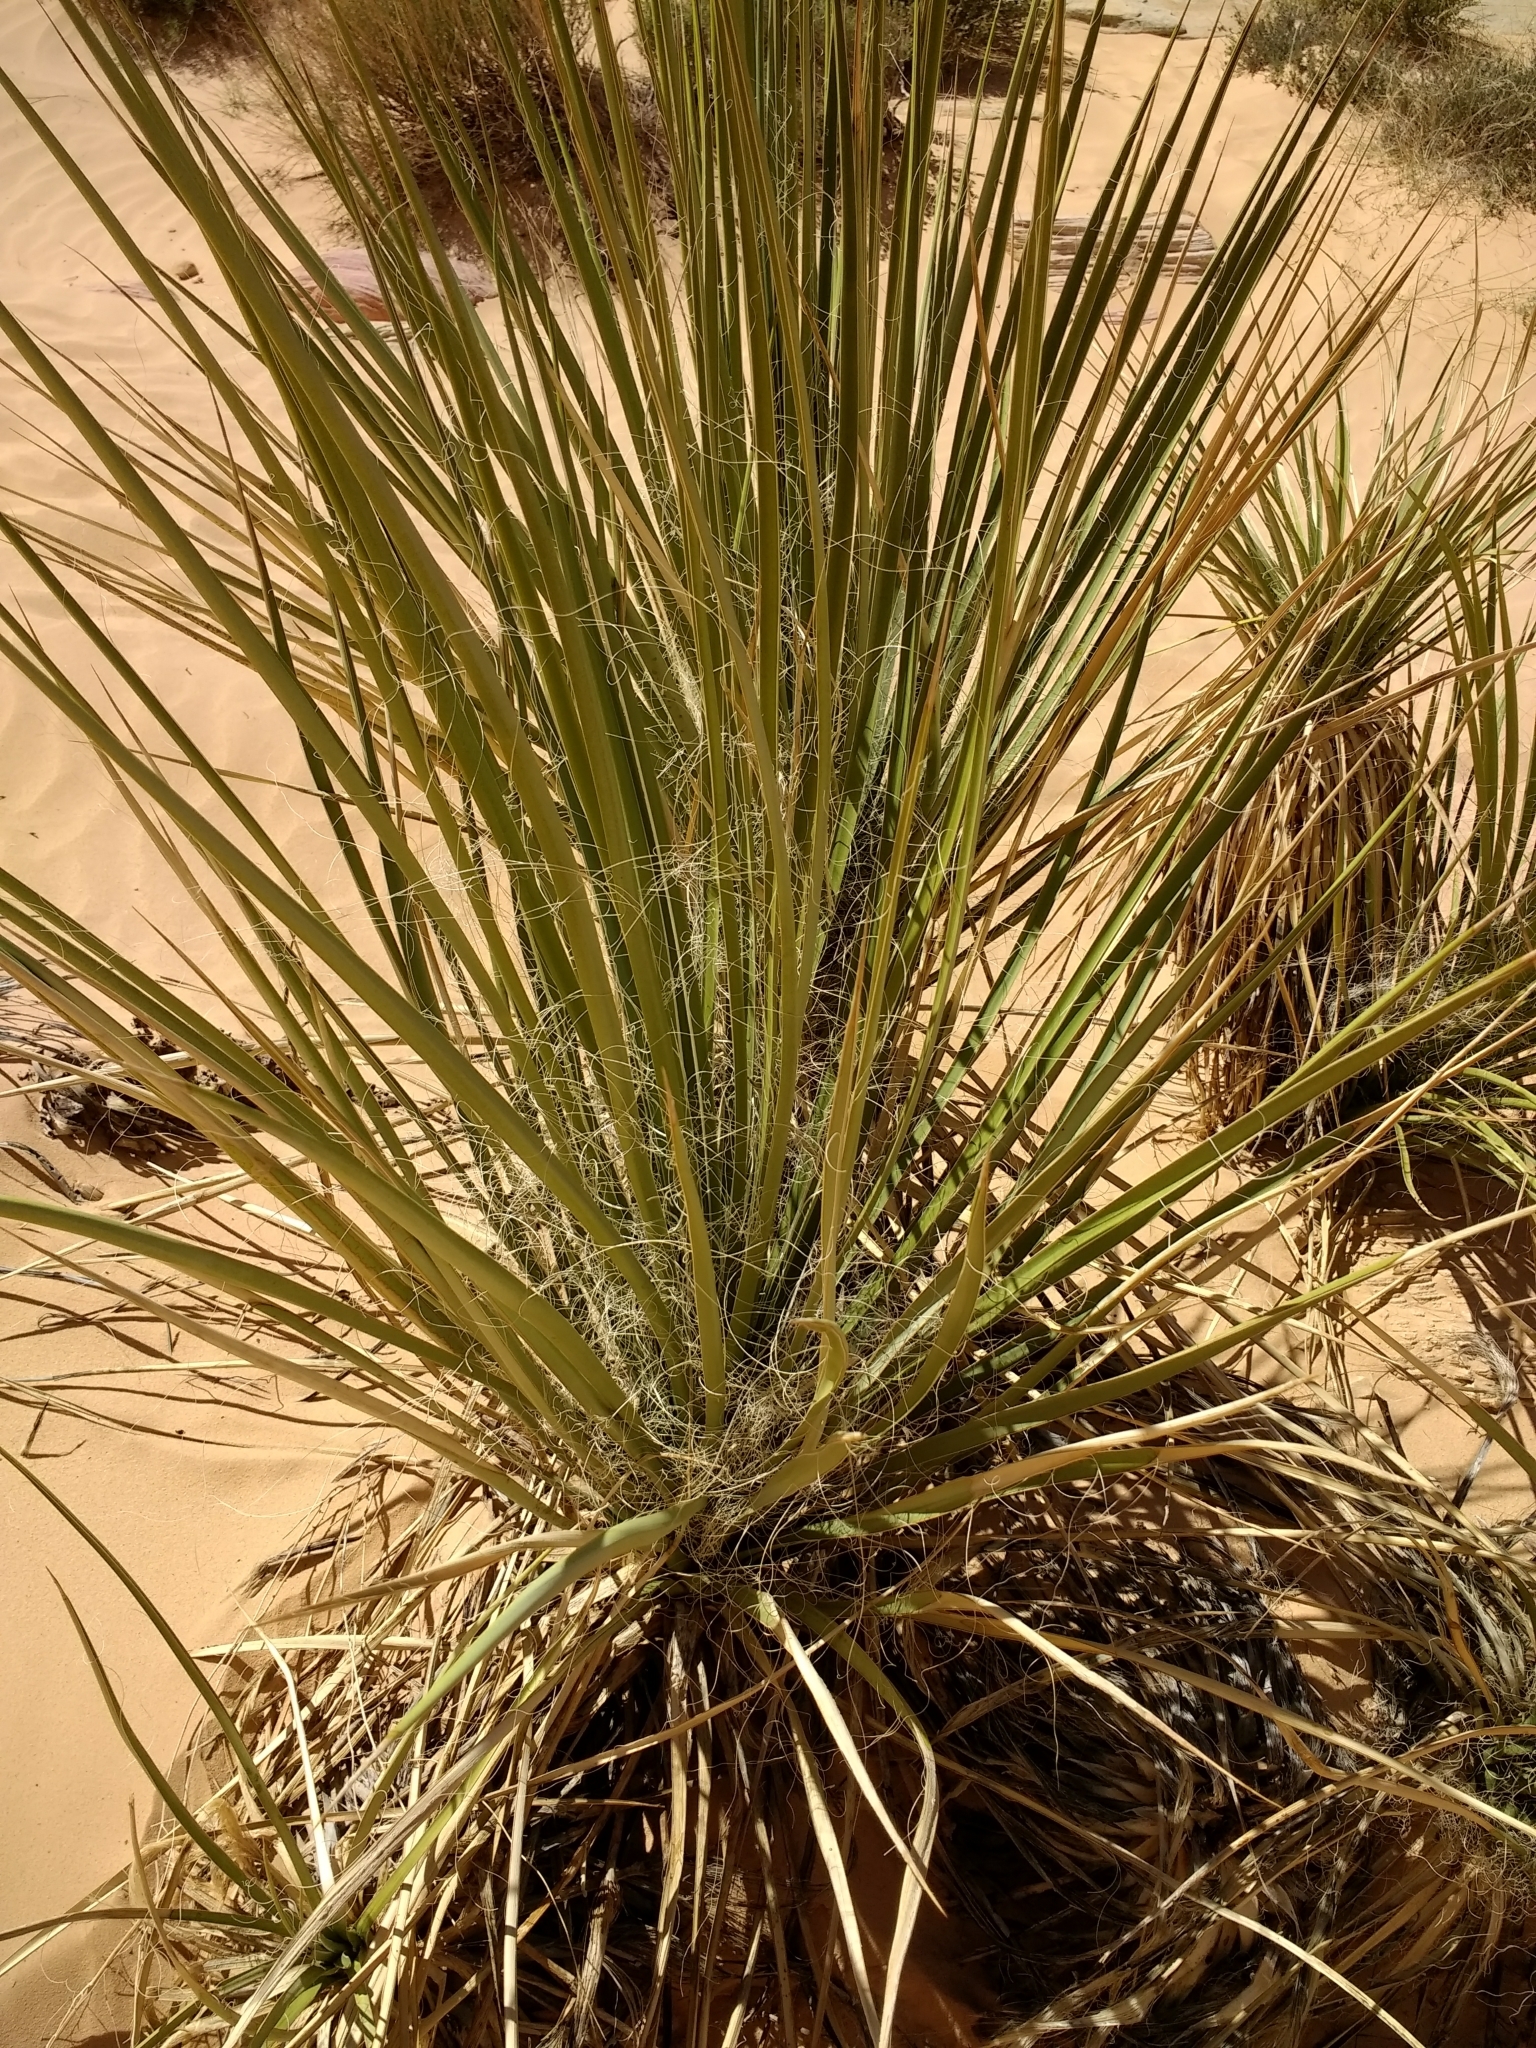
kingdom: Plantae
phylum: Tracheophyta
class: Liliopsida
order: Asparagales
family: Asparagaceae
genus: Yucca
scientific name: Yucca utahensis
